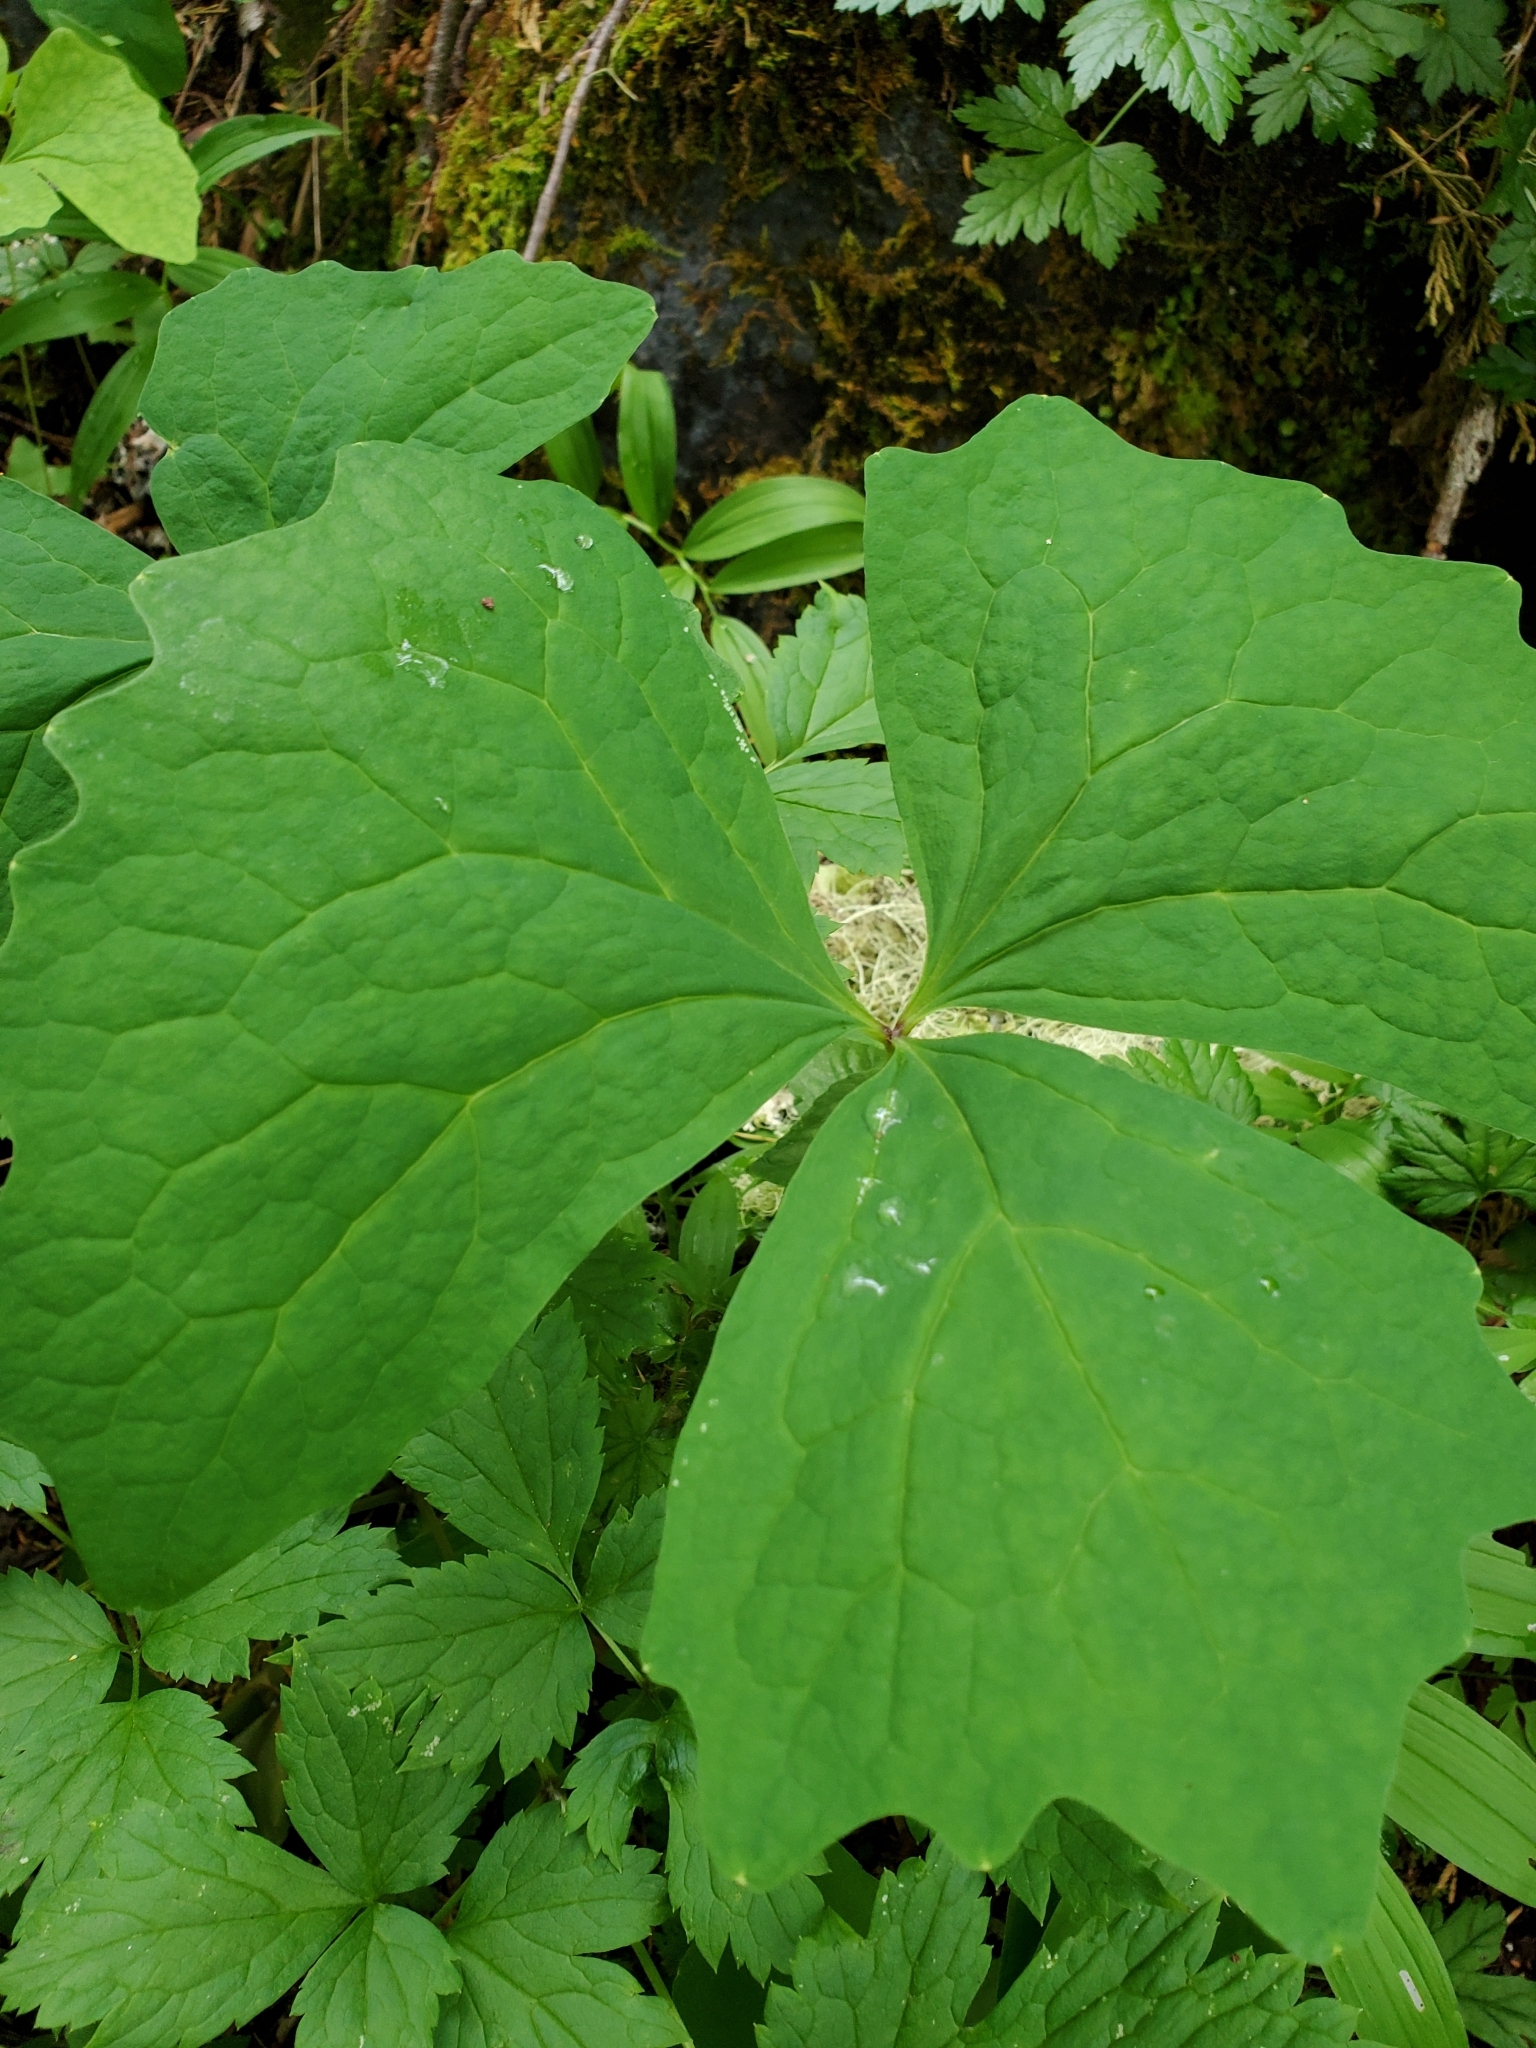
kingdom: Plantae
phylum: Tracheophyta
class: Magnoliopsida
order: Ranunculales
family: Berberidaceae
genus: Achlys
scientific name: Achlys triphylla
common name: Vanilla-leaf
